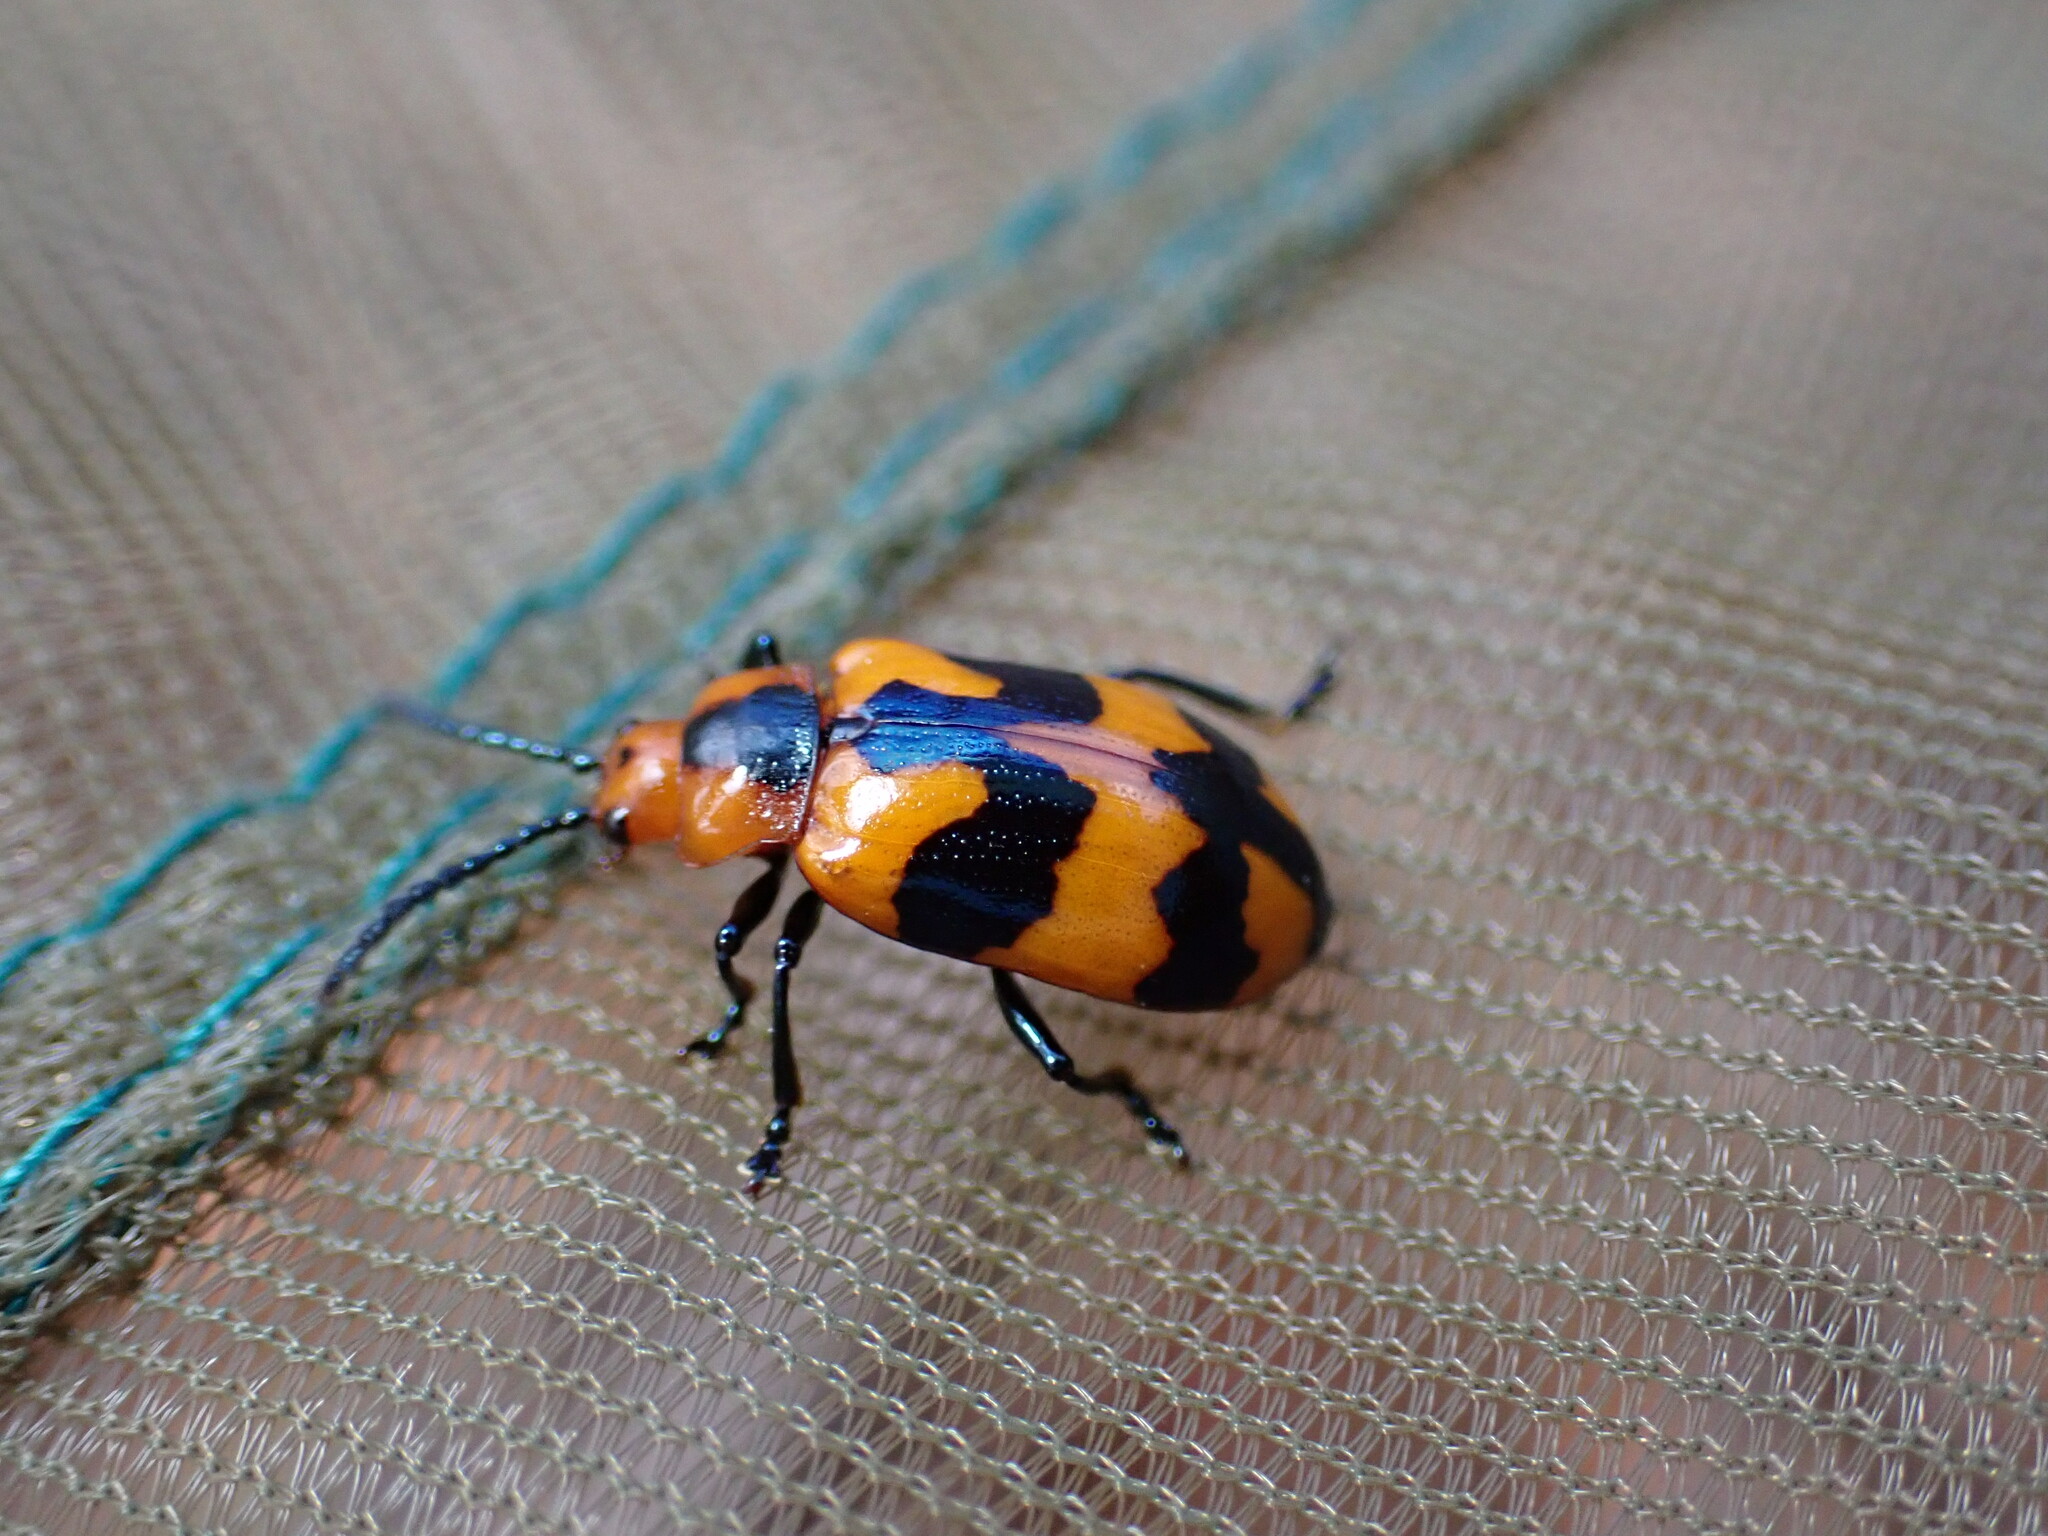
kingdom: Animalia
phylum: Arthropoda
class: Insecta
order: Coleoptera
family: Chrysomelidae
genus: Phyllocharis
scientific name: Phyllocharis
